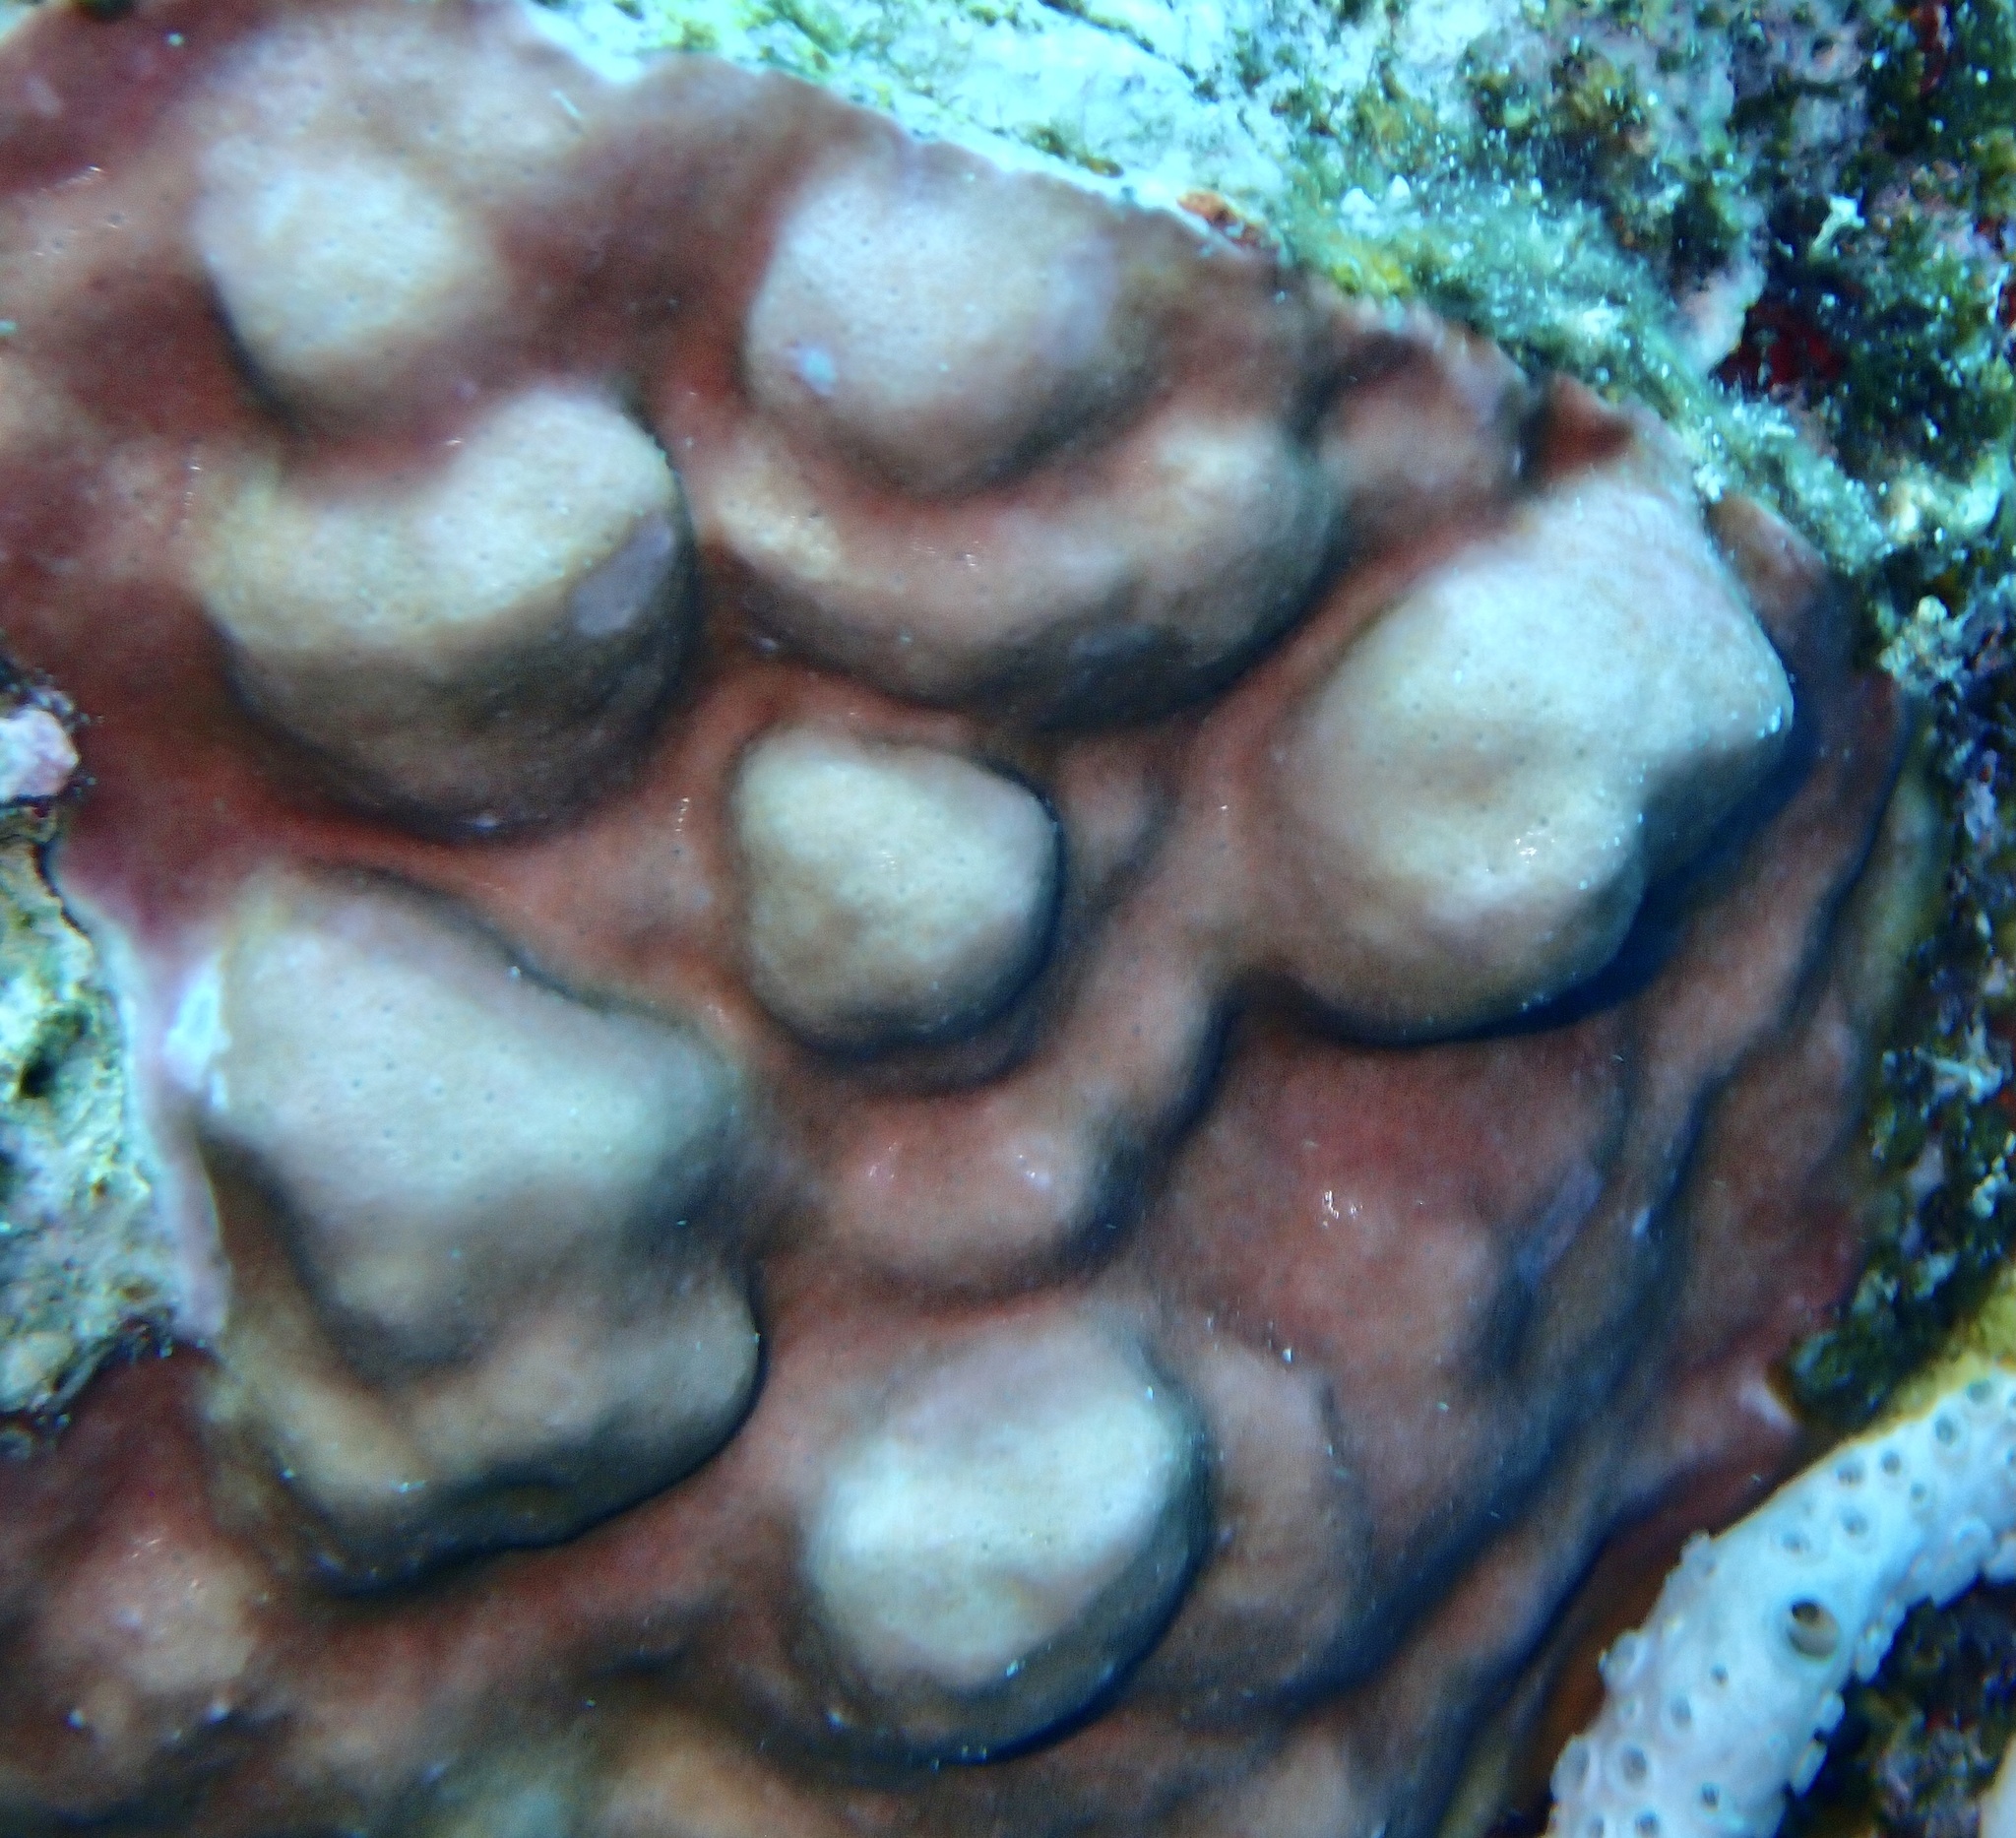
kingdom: Animalia
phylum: Cnidaria
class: Hydrozoa
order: Anthoathecata
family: Milleporidae
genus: Millepora
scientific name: Millepora exaesa
